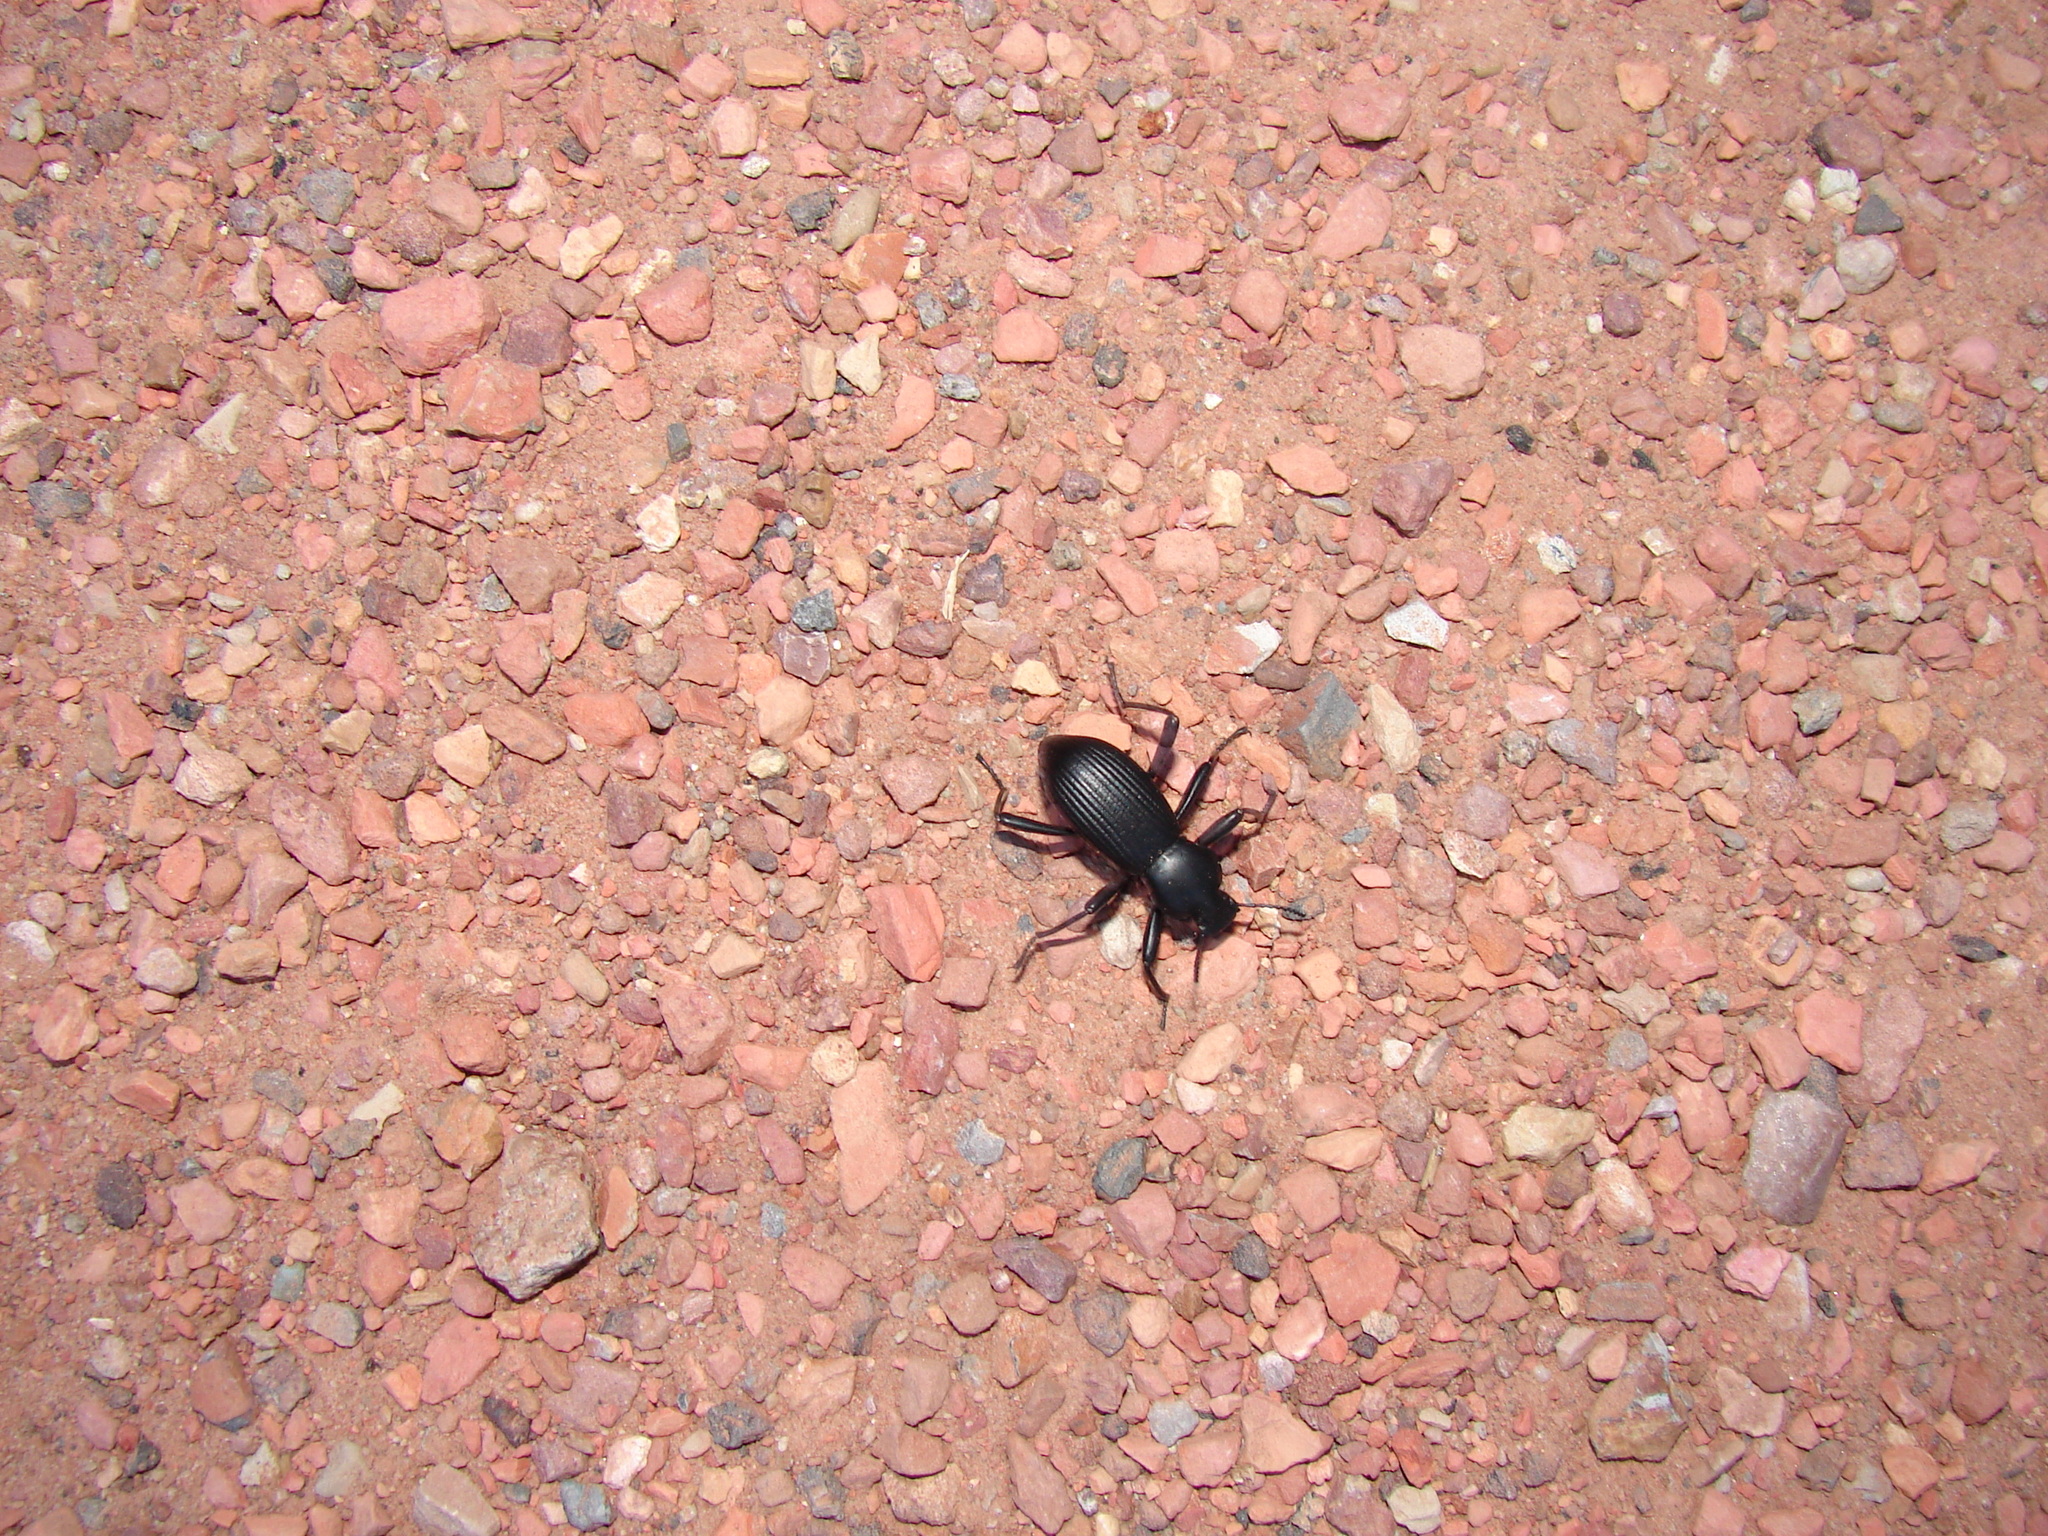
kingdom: Animalia
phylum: Arthropoda
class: Insecta
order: Coleoptera
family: Tenebrionidae
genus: Coelocnemis
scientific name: Coelocnemis sulcata
